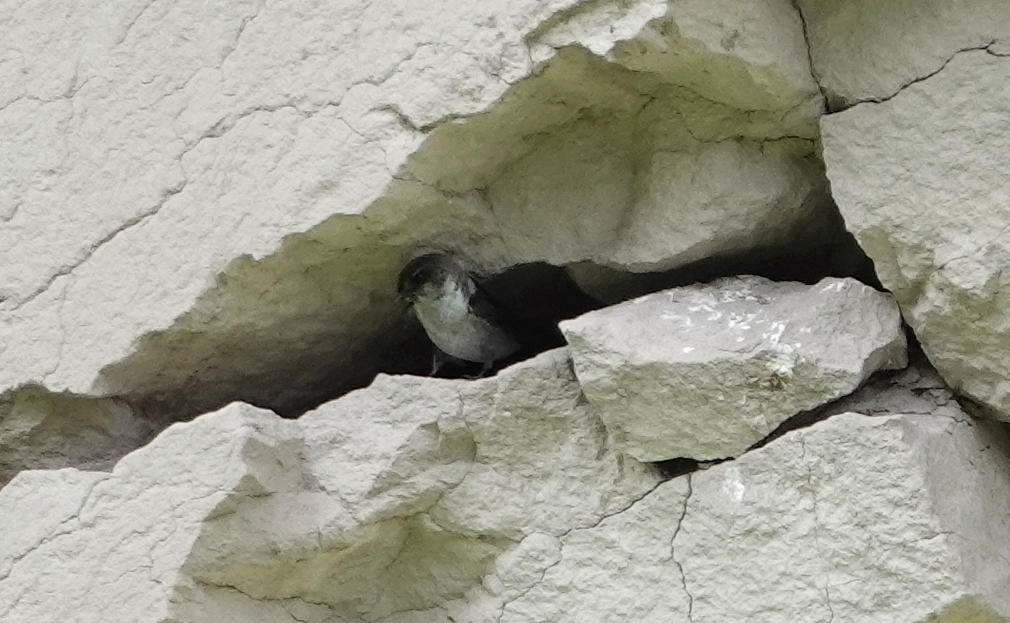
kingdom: Animalia
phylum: Chordata
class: Aves
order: Passeriformes
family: Hirundinidae
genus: Tachycineta
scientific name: Tachycineta thalassina
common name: Violet-green swallow
